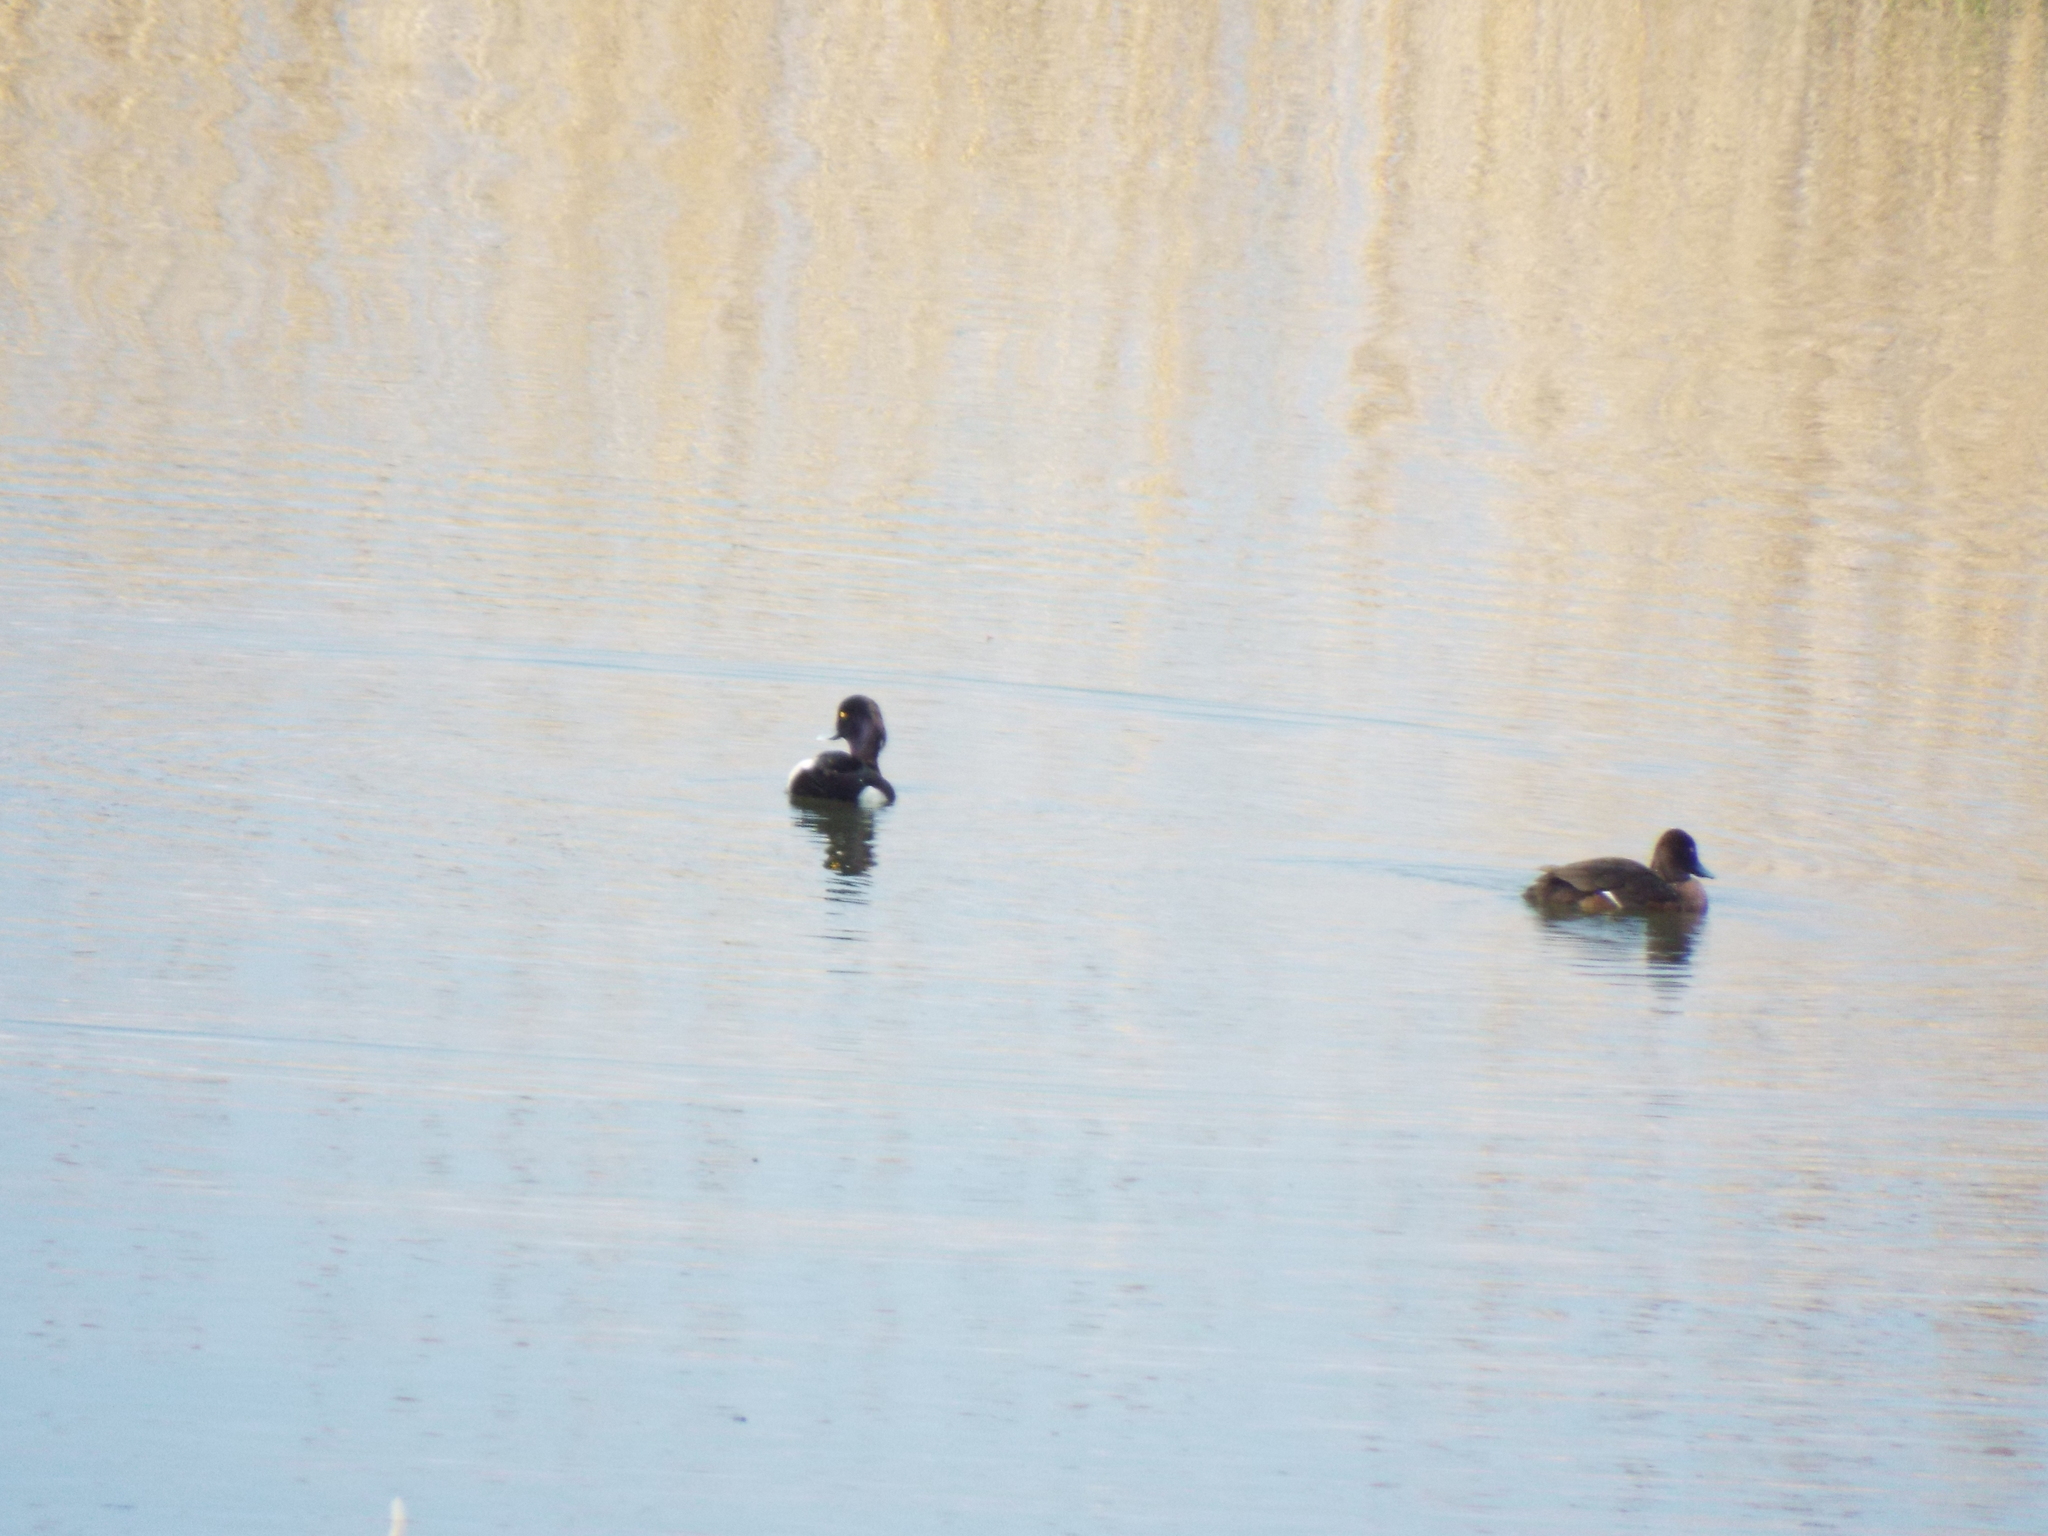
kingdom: Animalia
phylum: Chordata
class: Aves
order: Anseriformes
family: Anatidae
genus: Aythya
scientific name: Aythya fuligula
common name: Tufted duck
